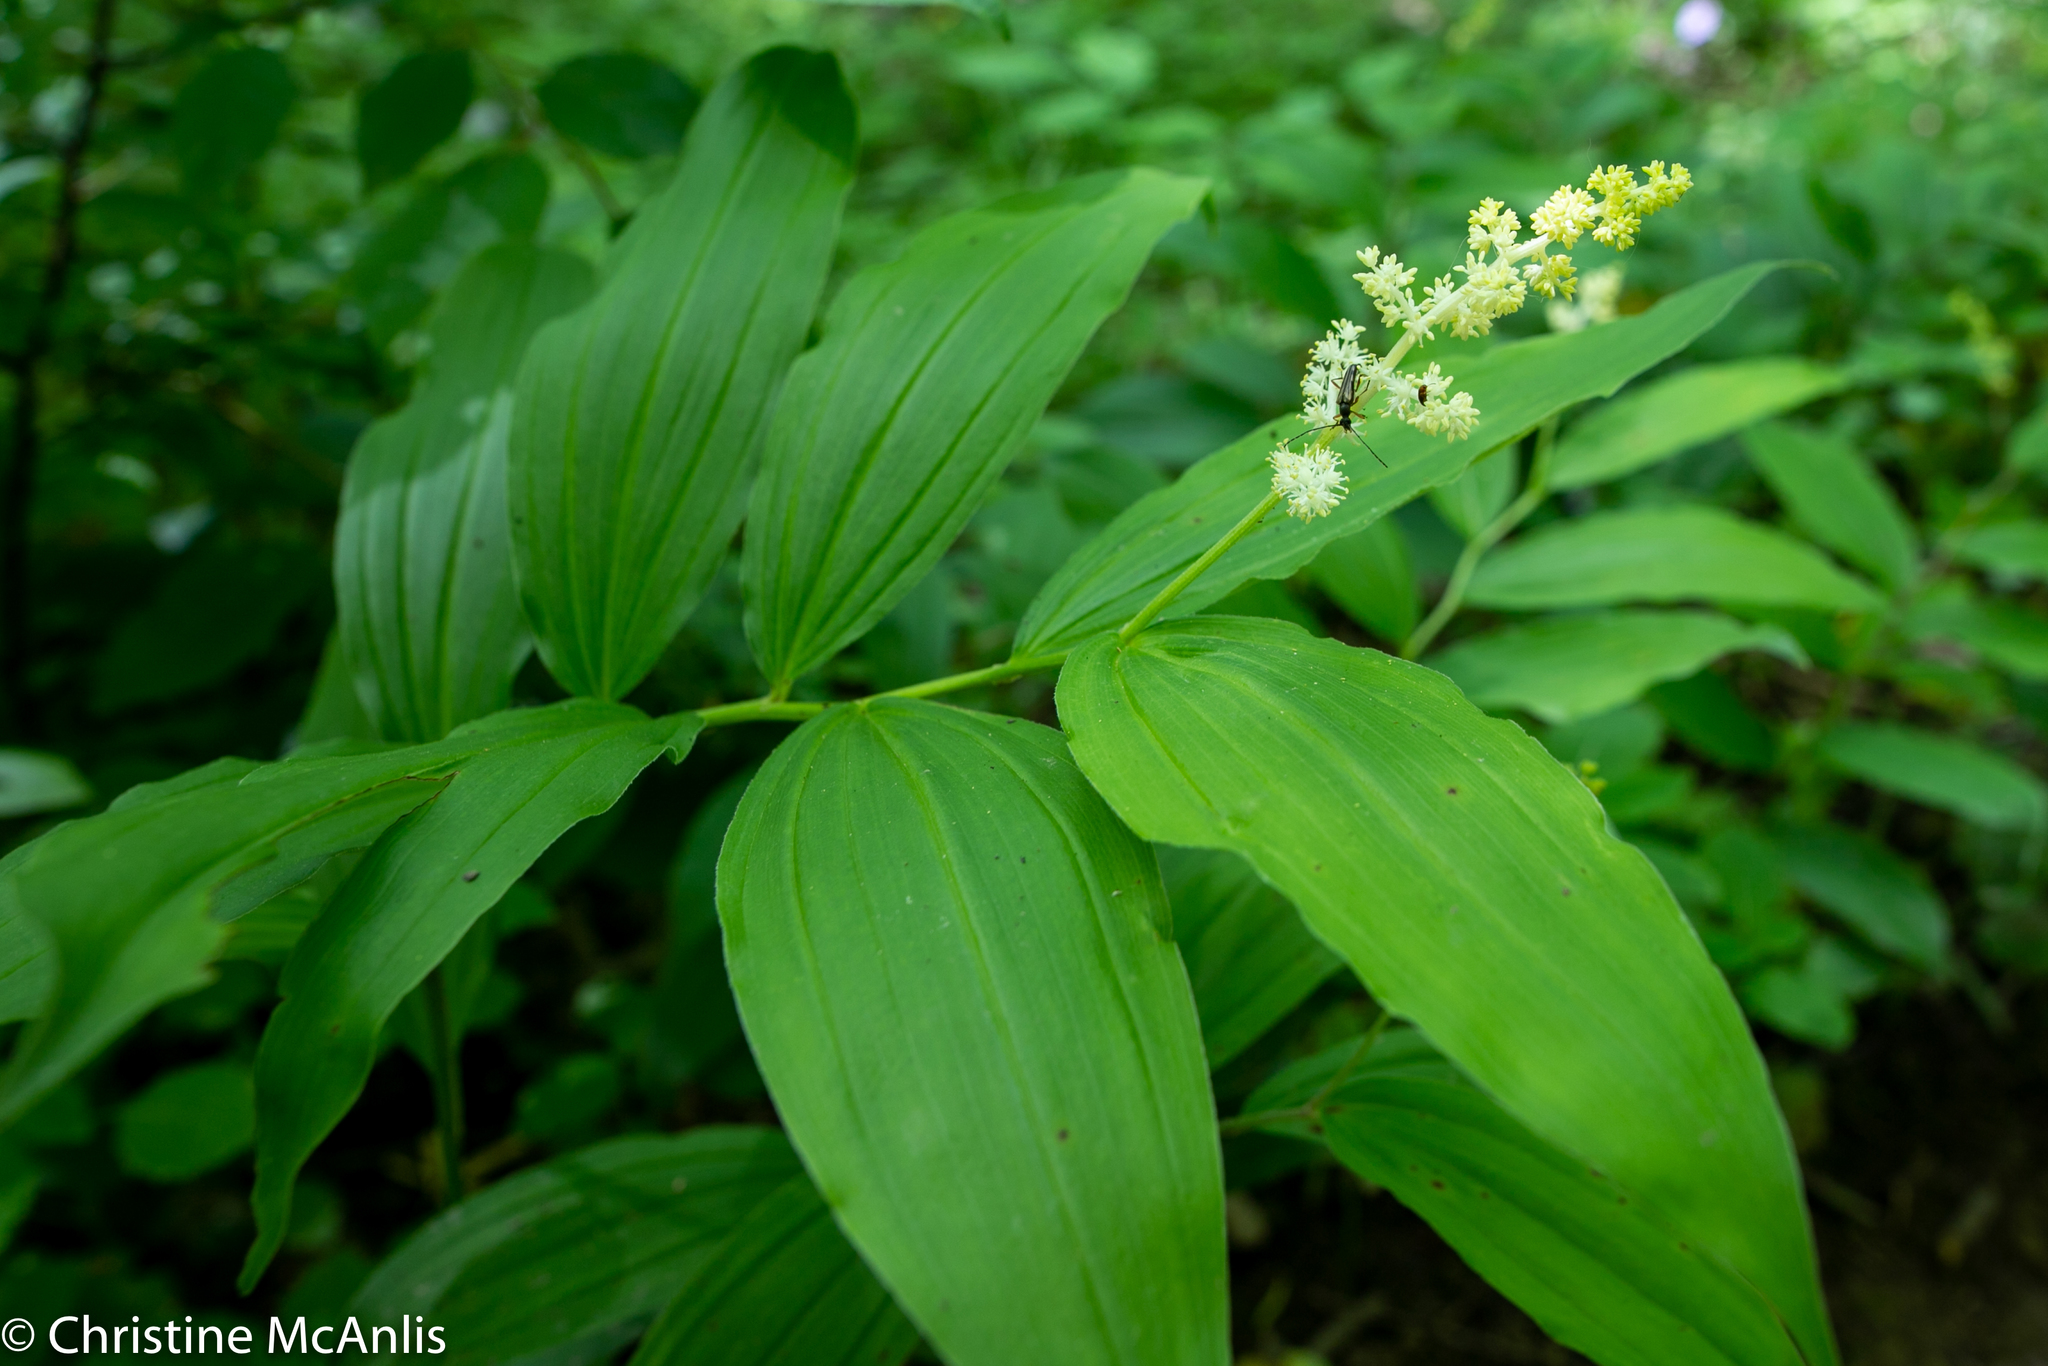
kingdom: Plantae
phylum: Tracheophyta
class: Liliopsida
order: Asparagales
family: Asparagaceae
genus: Maianthemum
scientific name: Maianthemum racemosum
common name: False spikenard
